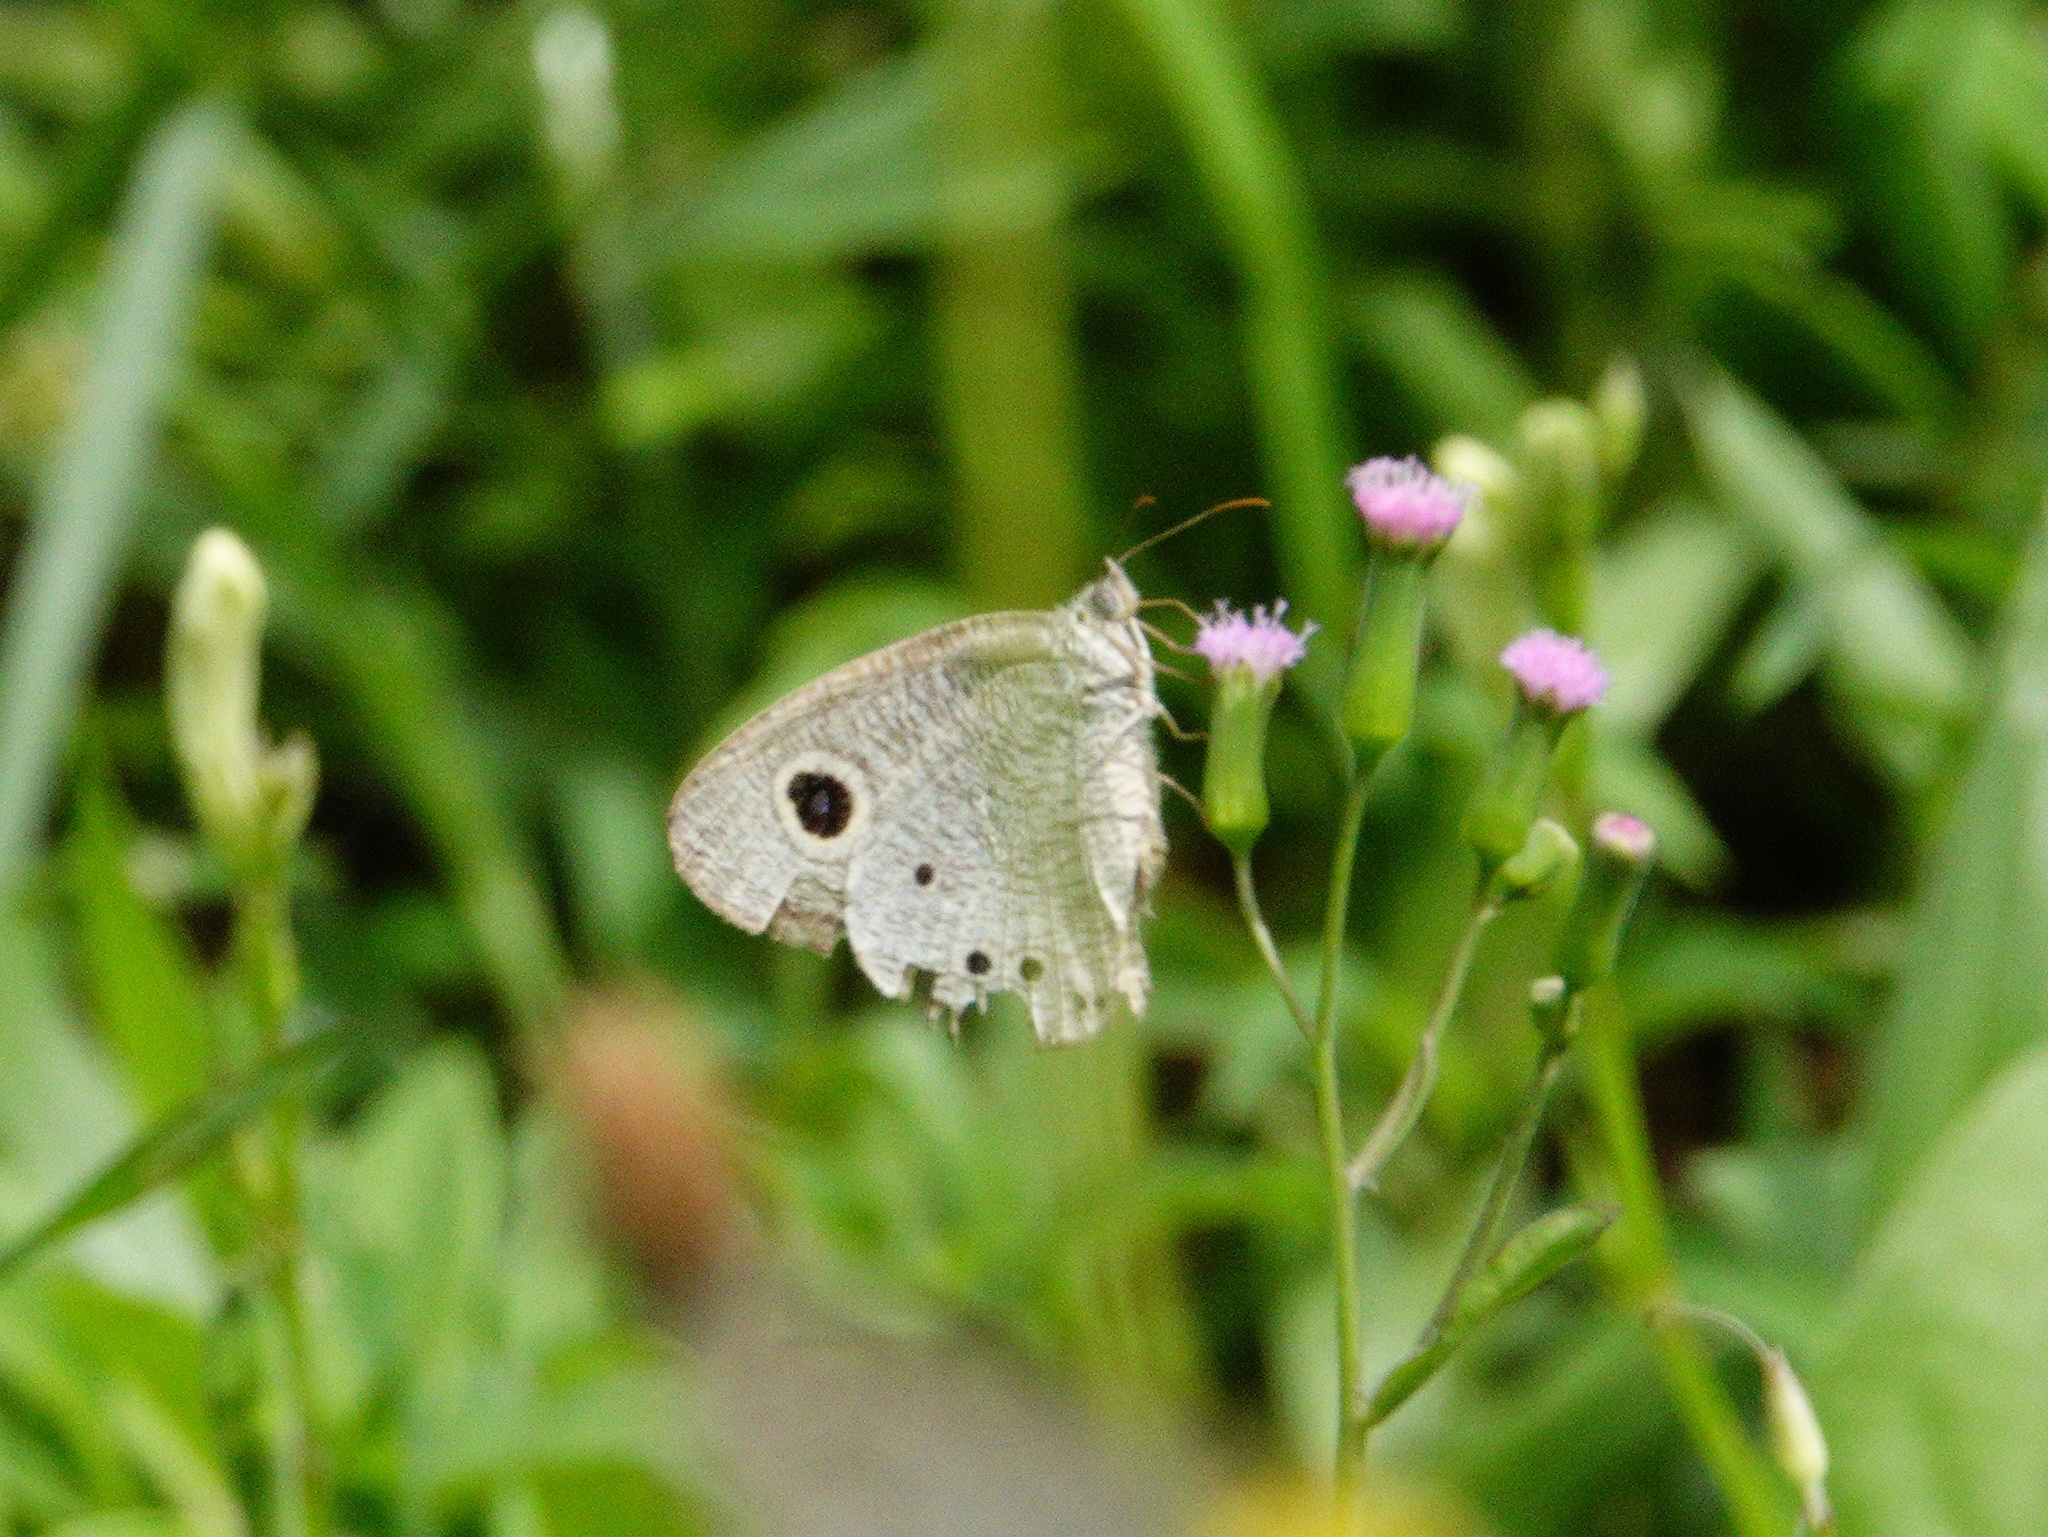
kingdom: Animalia
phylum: Arthropoda
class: Insecta
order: Lepidoptera
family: Nymphalidae
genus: Ypthima
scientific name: Ypthima huebneri
